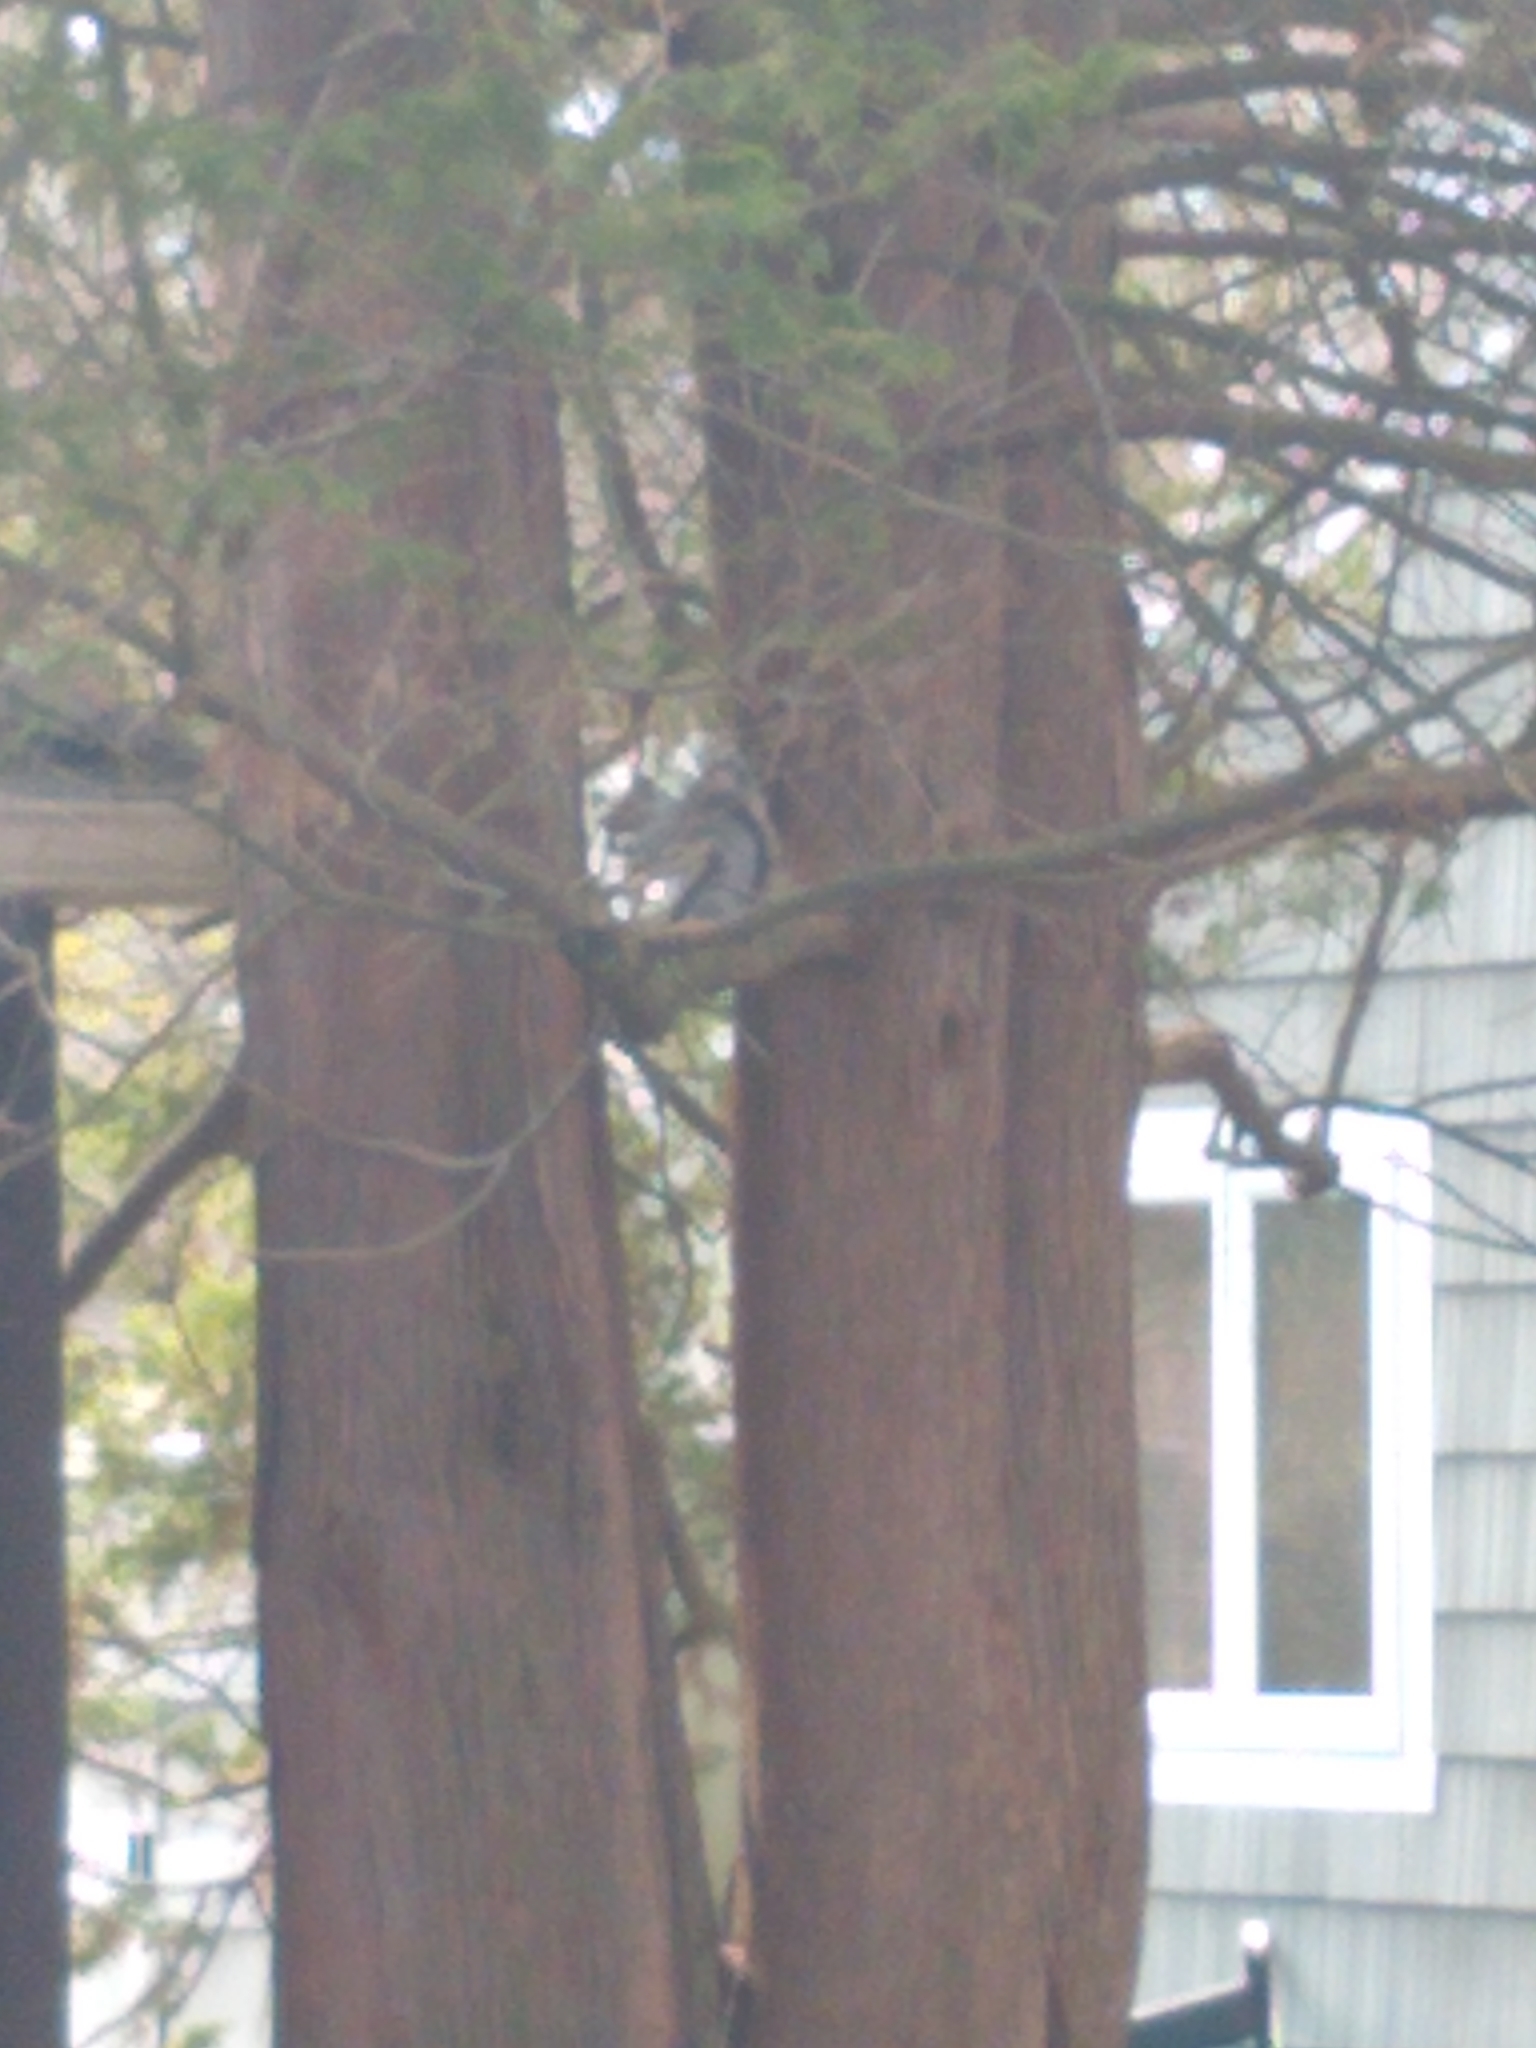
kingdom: Animalia
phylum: Chordata
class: Mammalia
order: Rodentia
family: Sciuridae
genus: Sciurus
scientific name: Sciurus carolinensis
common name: Eastern gray squirrel
